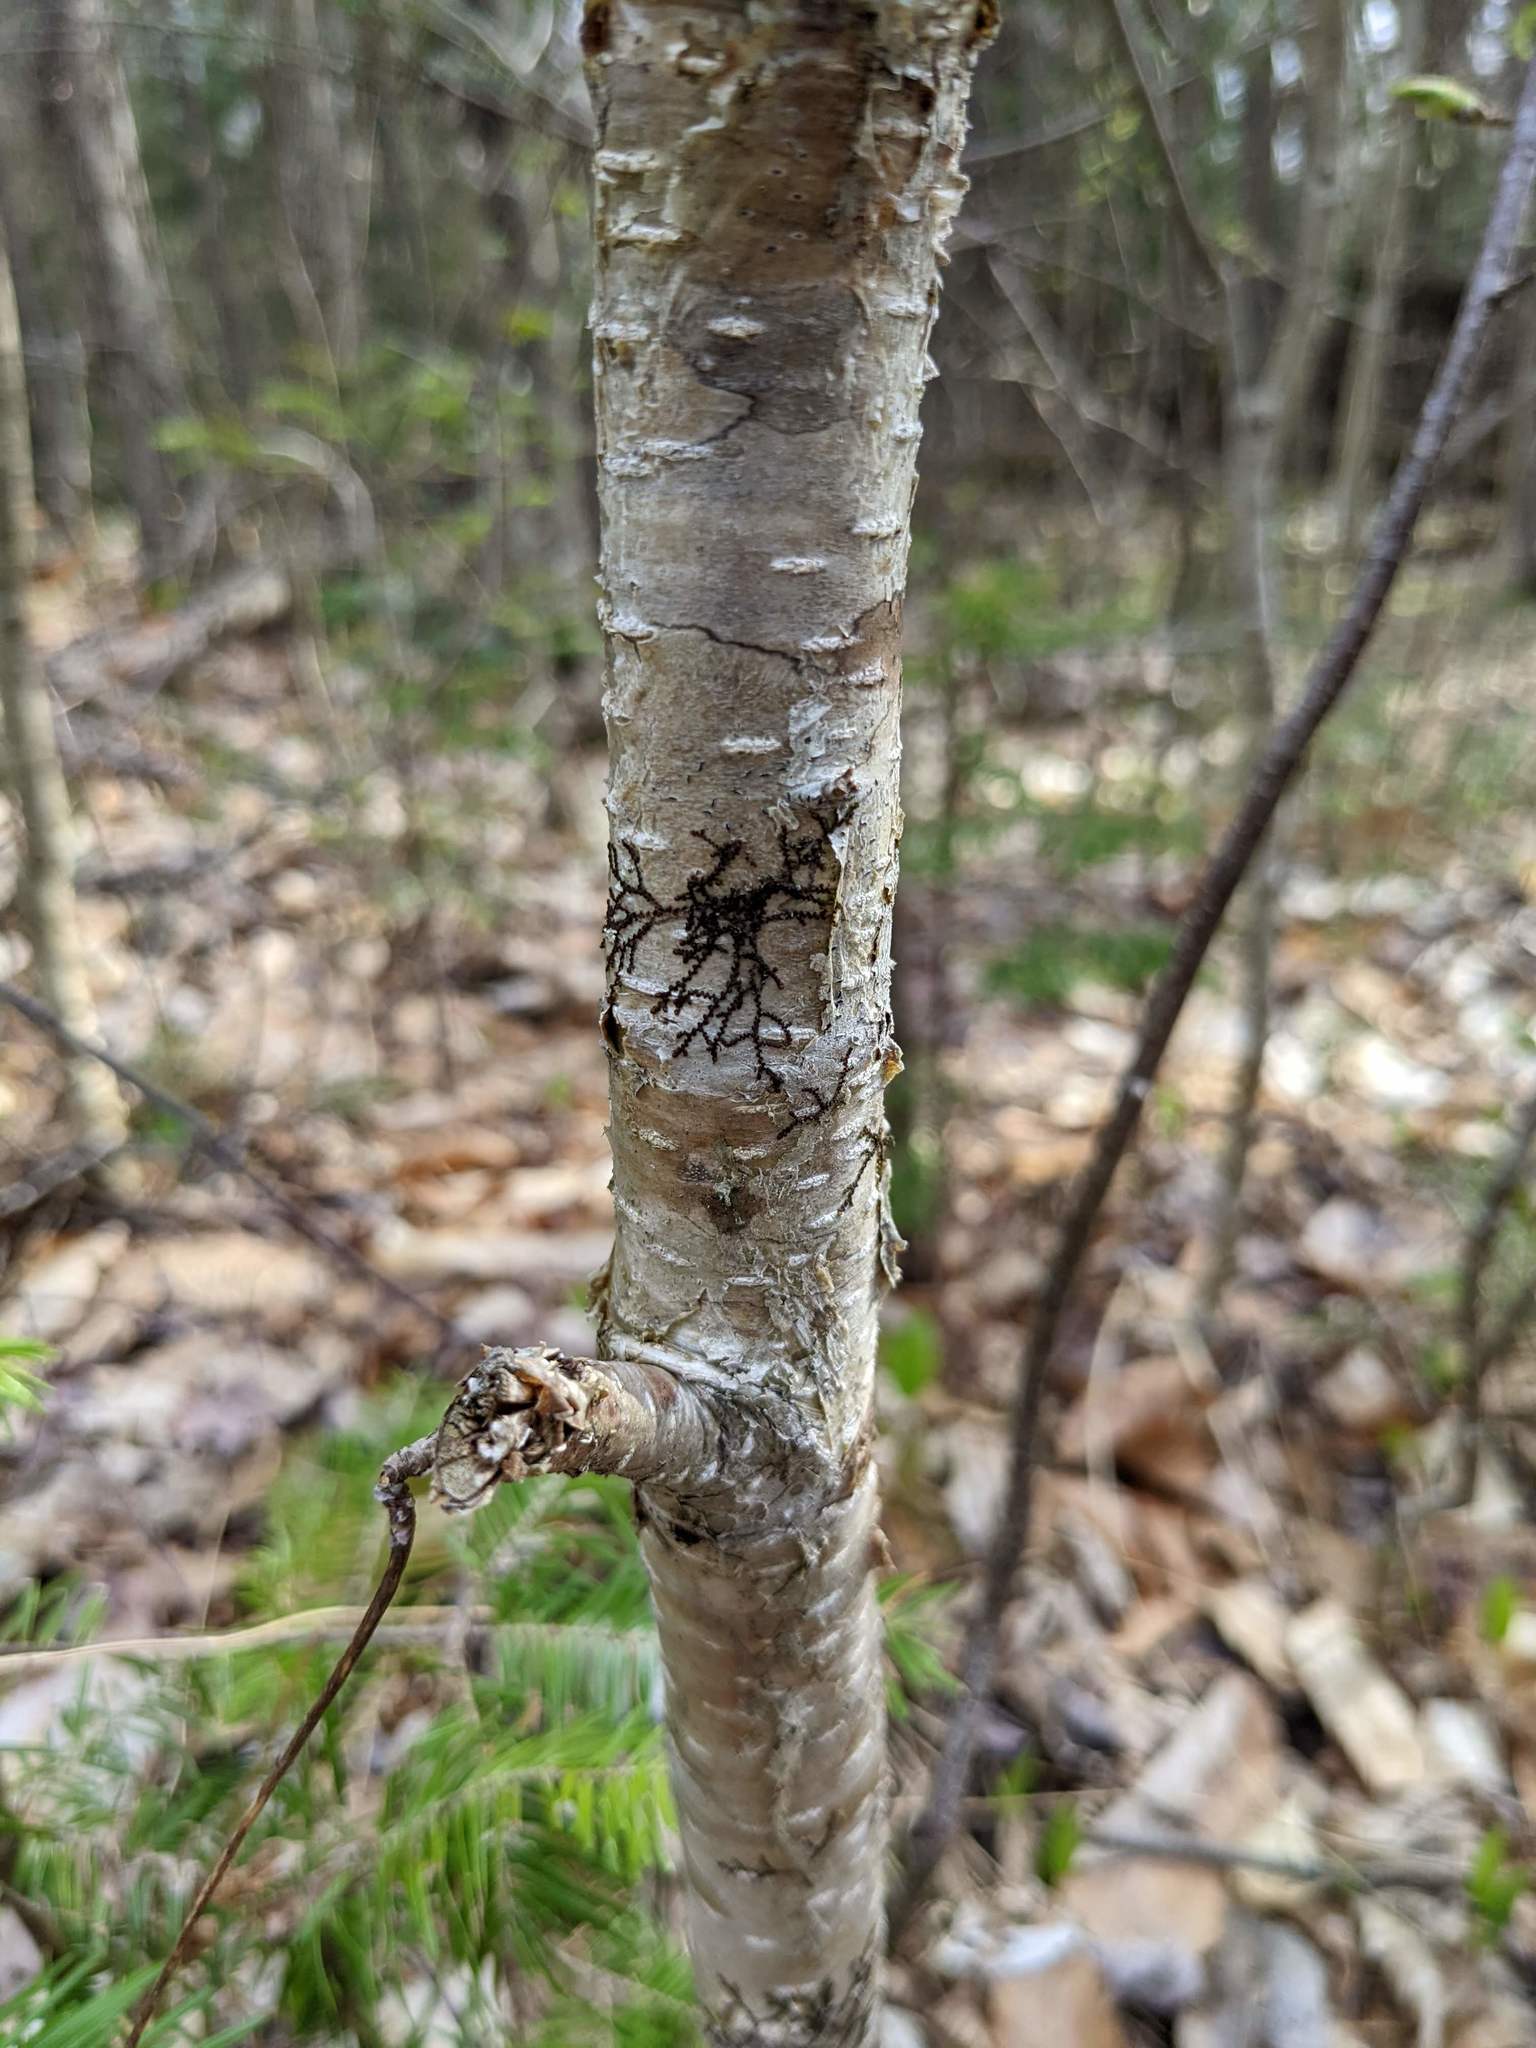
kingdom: Plantae
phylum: Marchantiophyta
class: Jungermanniopsida
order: Porellales
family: Frullaniaceae
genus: Frullania
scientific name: Frullania eboracensis
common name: New york scalewort
